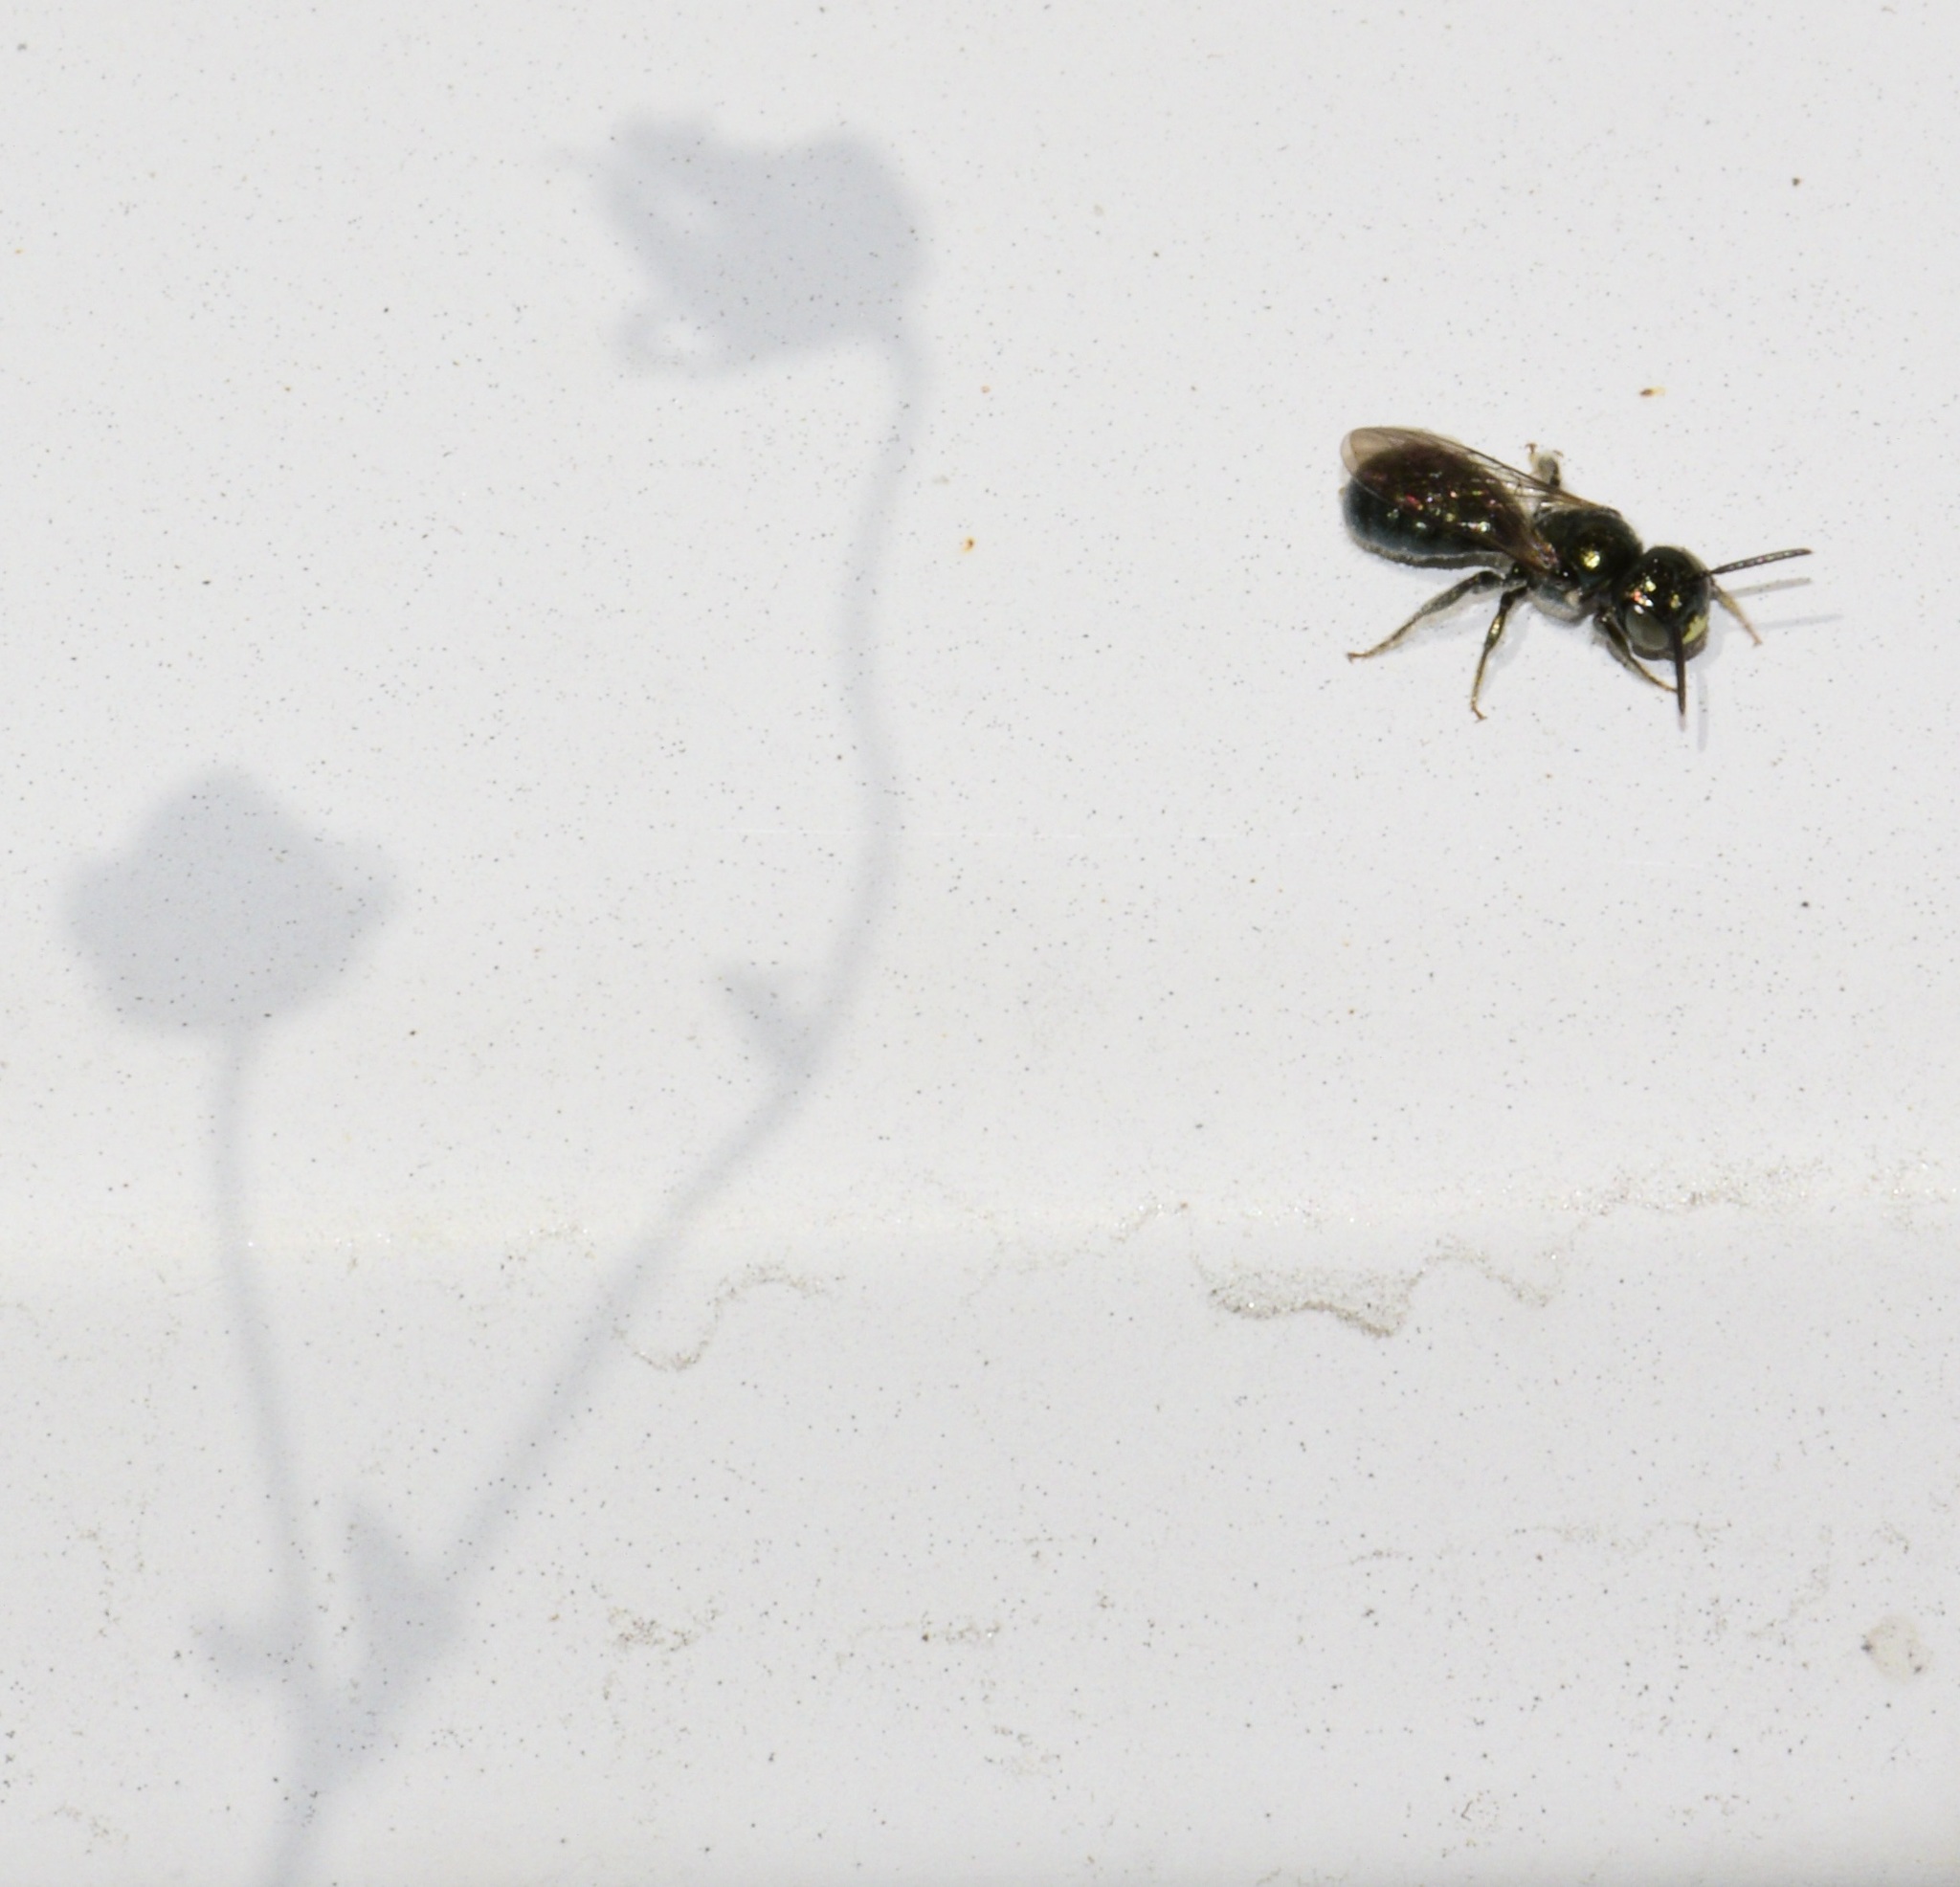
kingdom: Animalia
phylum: Arthropoda
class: Insecta
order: Hymenoptera
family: Apidae
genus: Ceratina
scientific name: Ceratina calcarata
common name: Spurred carpenter bee
